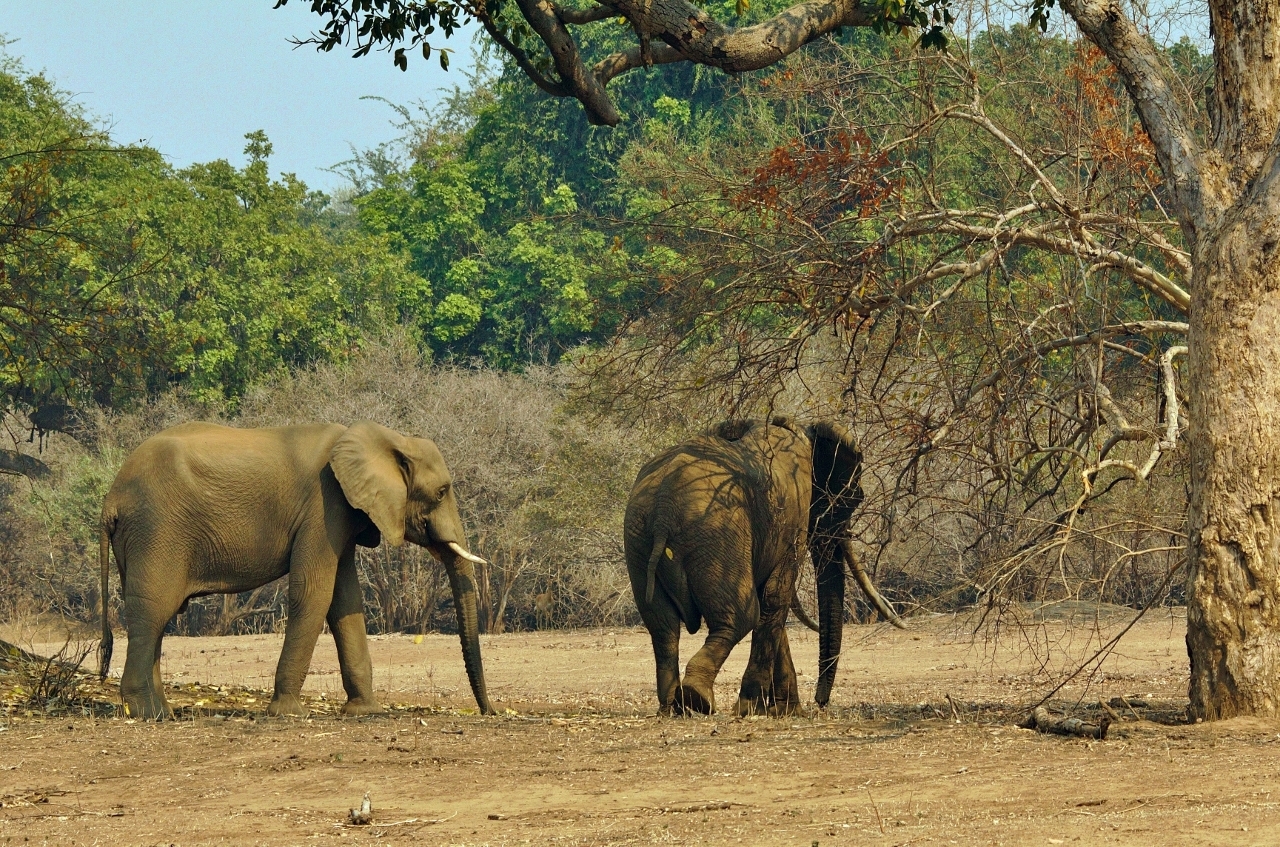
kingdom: Animalia
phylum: Chordata
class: Mammalia
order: Proboscidea
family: Elephantidae
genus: Loxodonta
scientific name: Loxodonta africana
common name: African elephant
